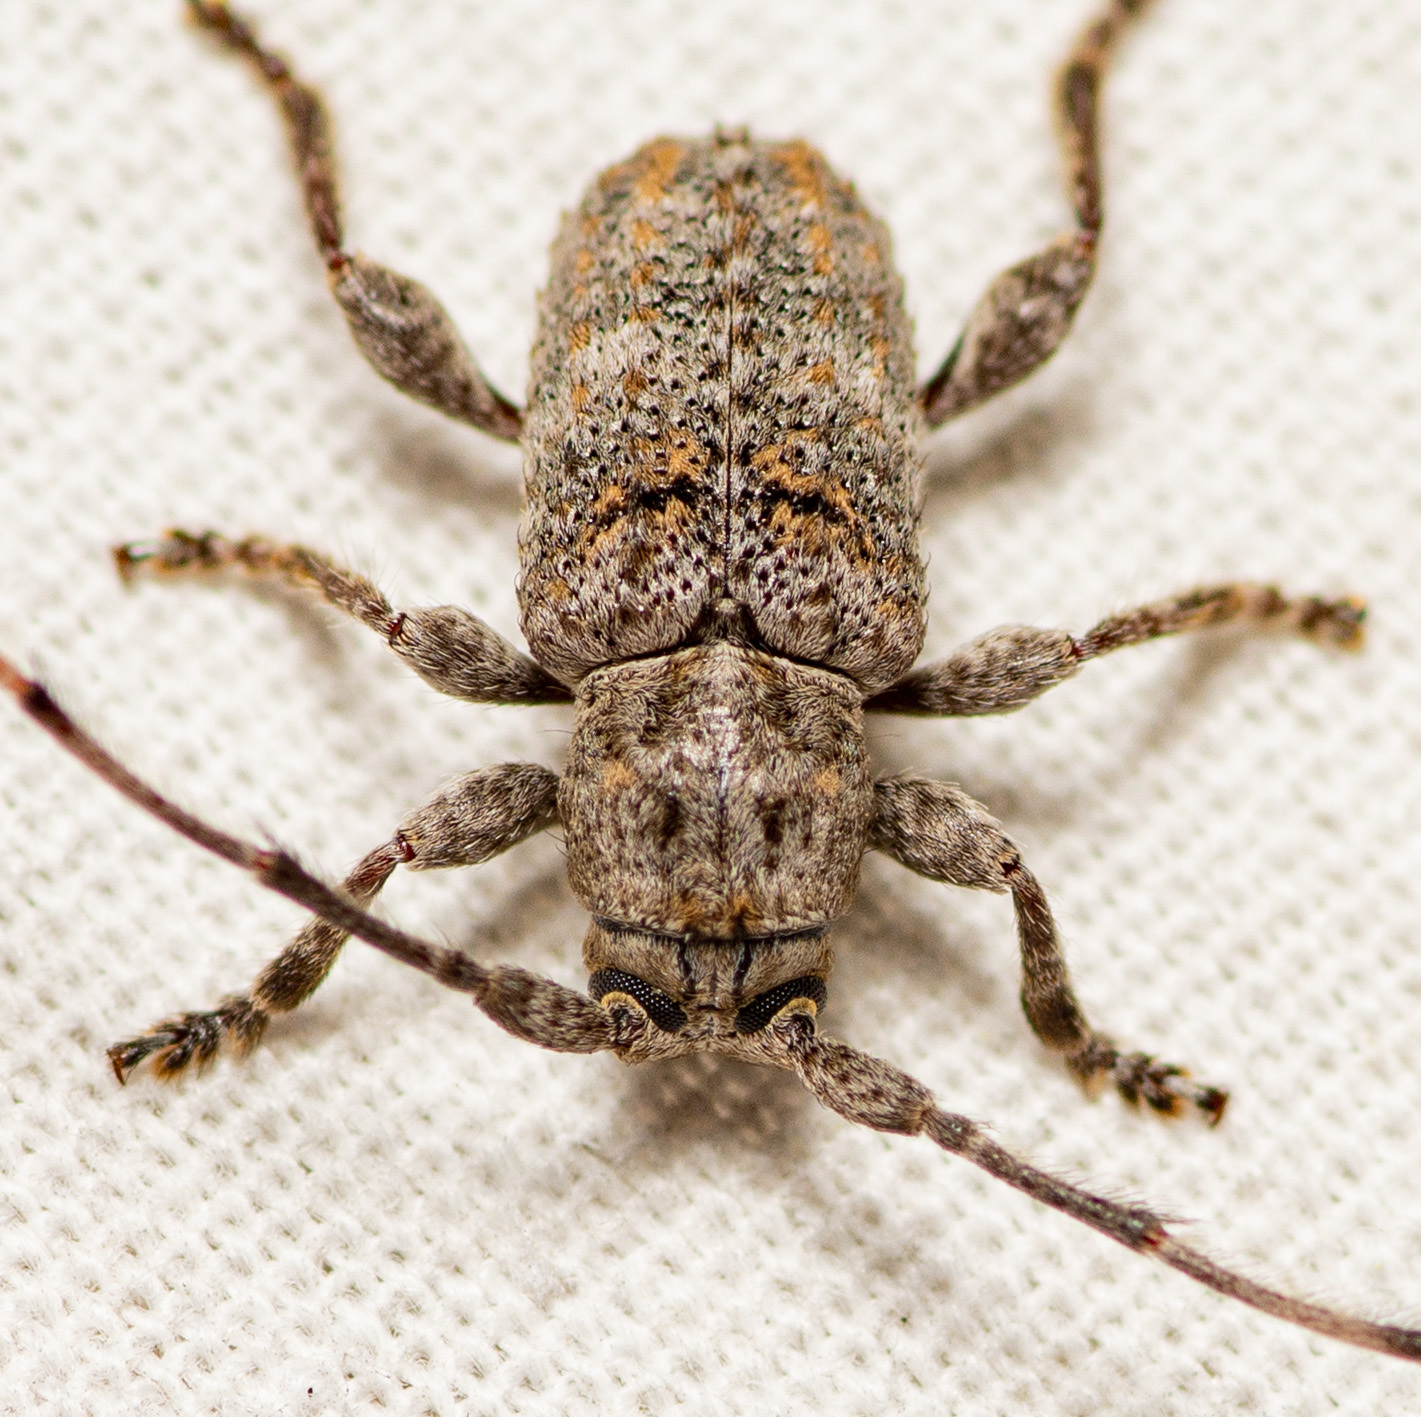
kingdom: Animalia
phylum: Arthropoda
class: Insecta
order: Coleoptera
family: Cerambycidae
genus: Ecyrus
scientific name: Ecyrus dasycerus
